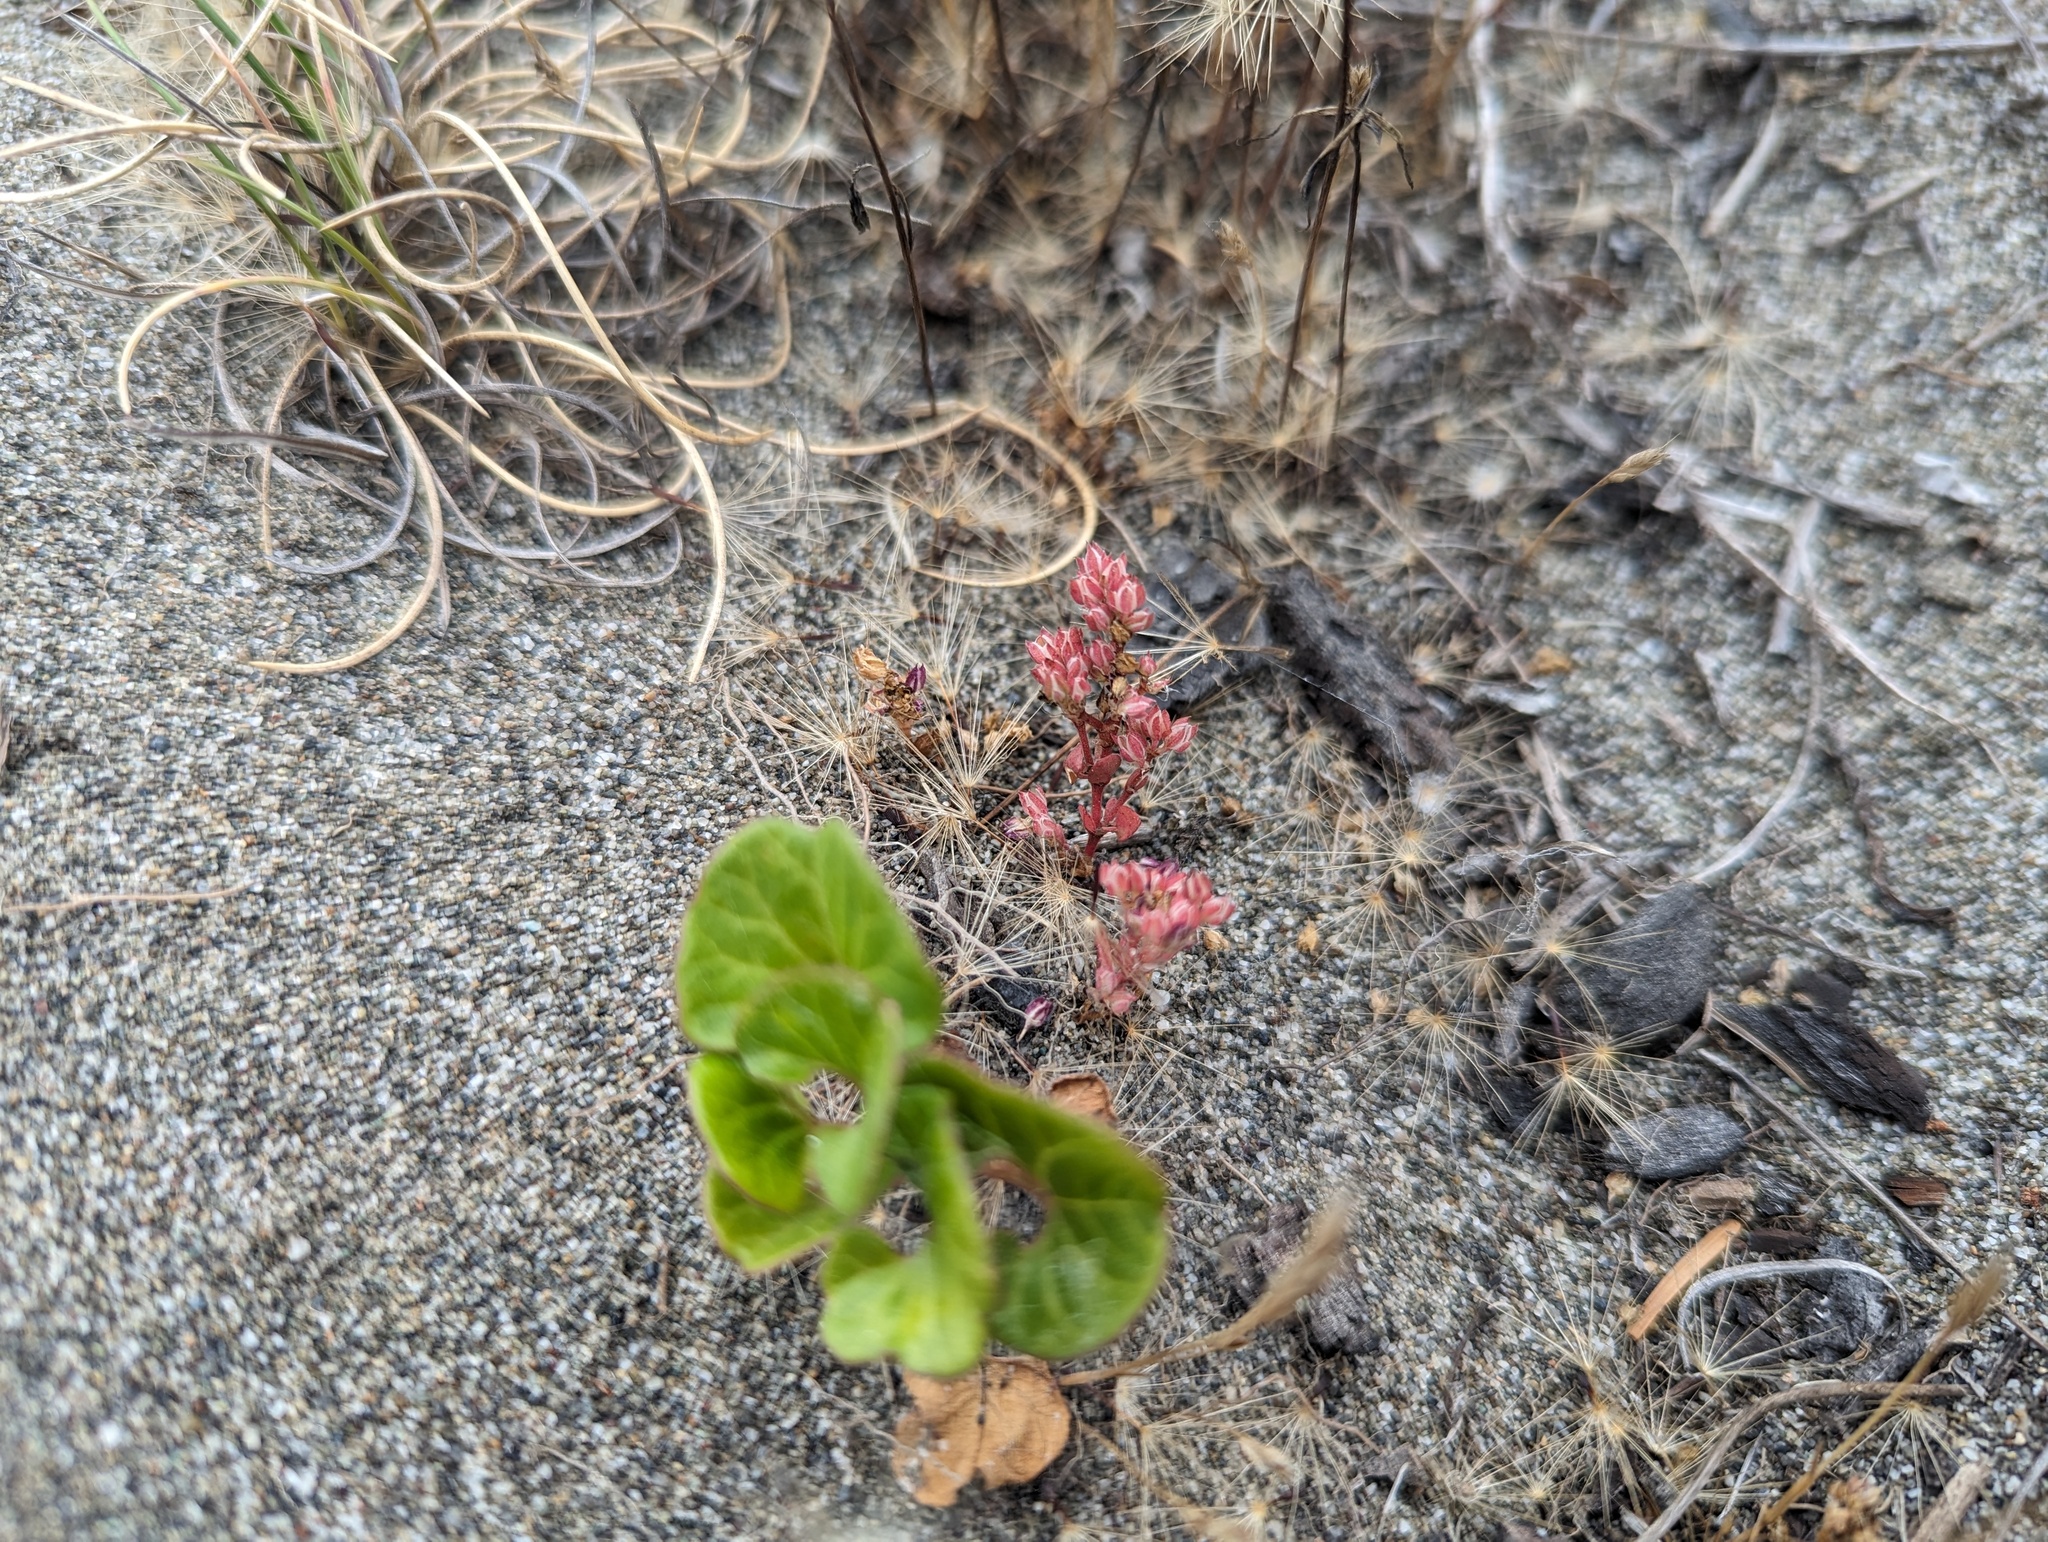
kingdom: Plantae
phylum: Tracheophyta
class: Magnoliopsida
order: Caryophyllales
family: Caryophyllaceae
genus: Polycarpon
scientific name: Polycarpon tetraphyllum
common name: Four-leaved all-seed
